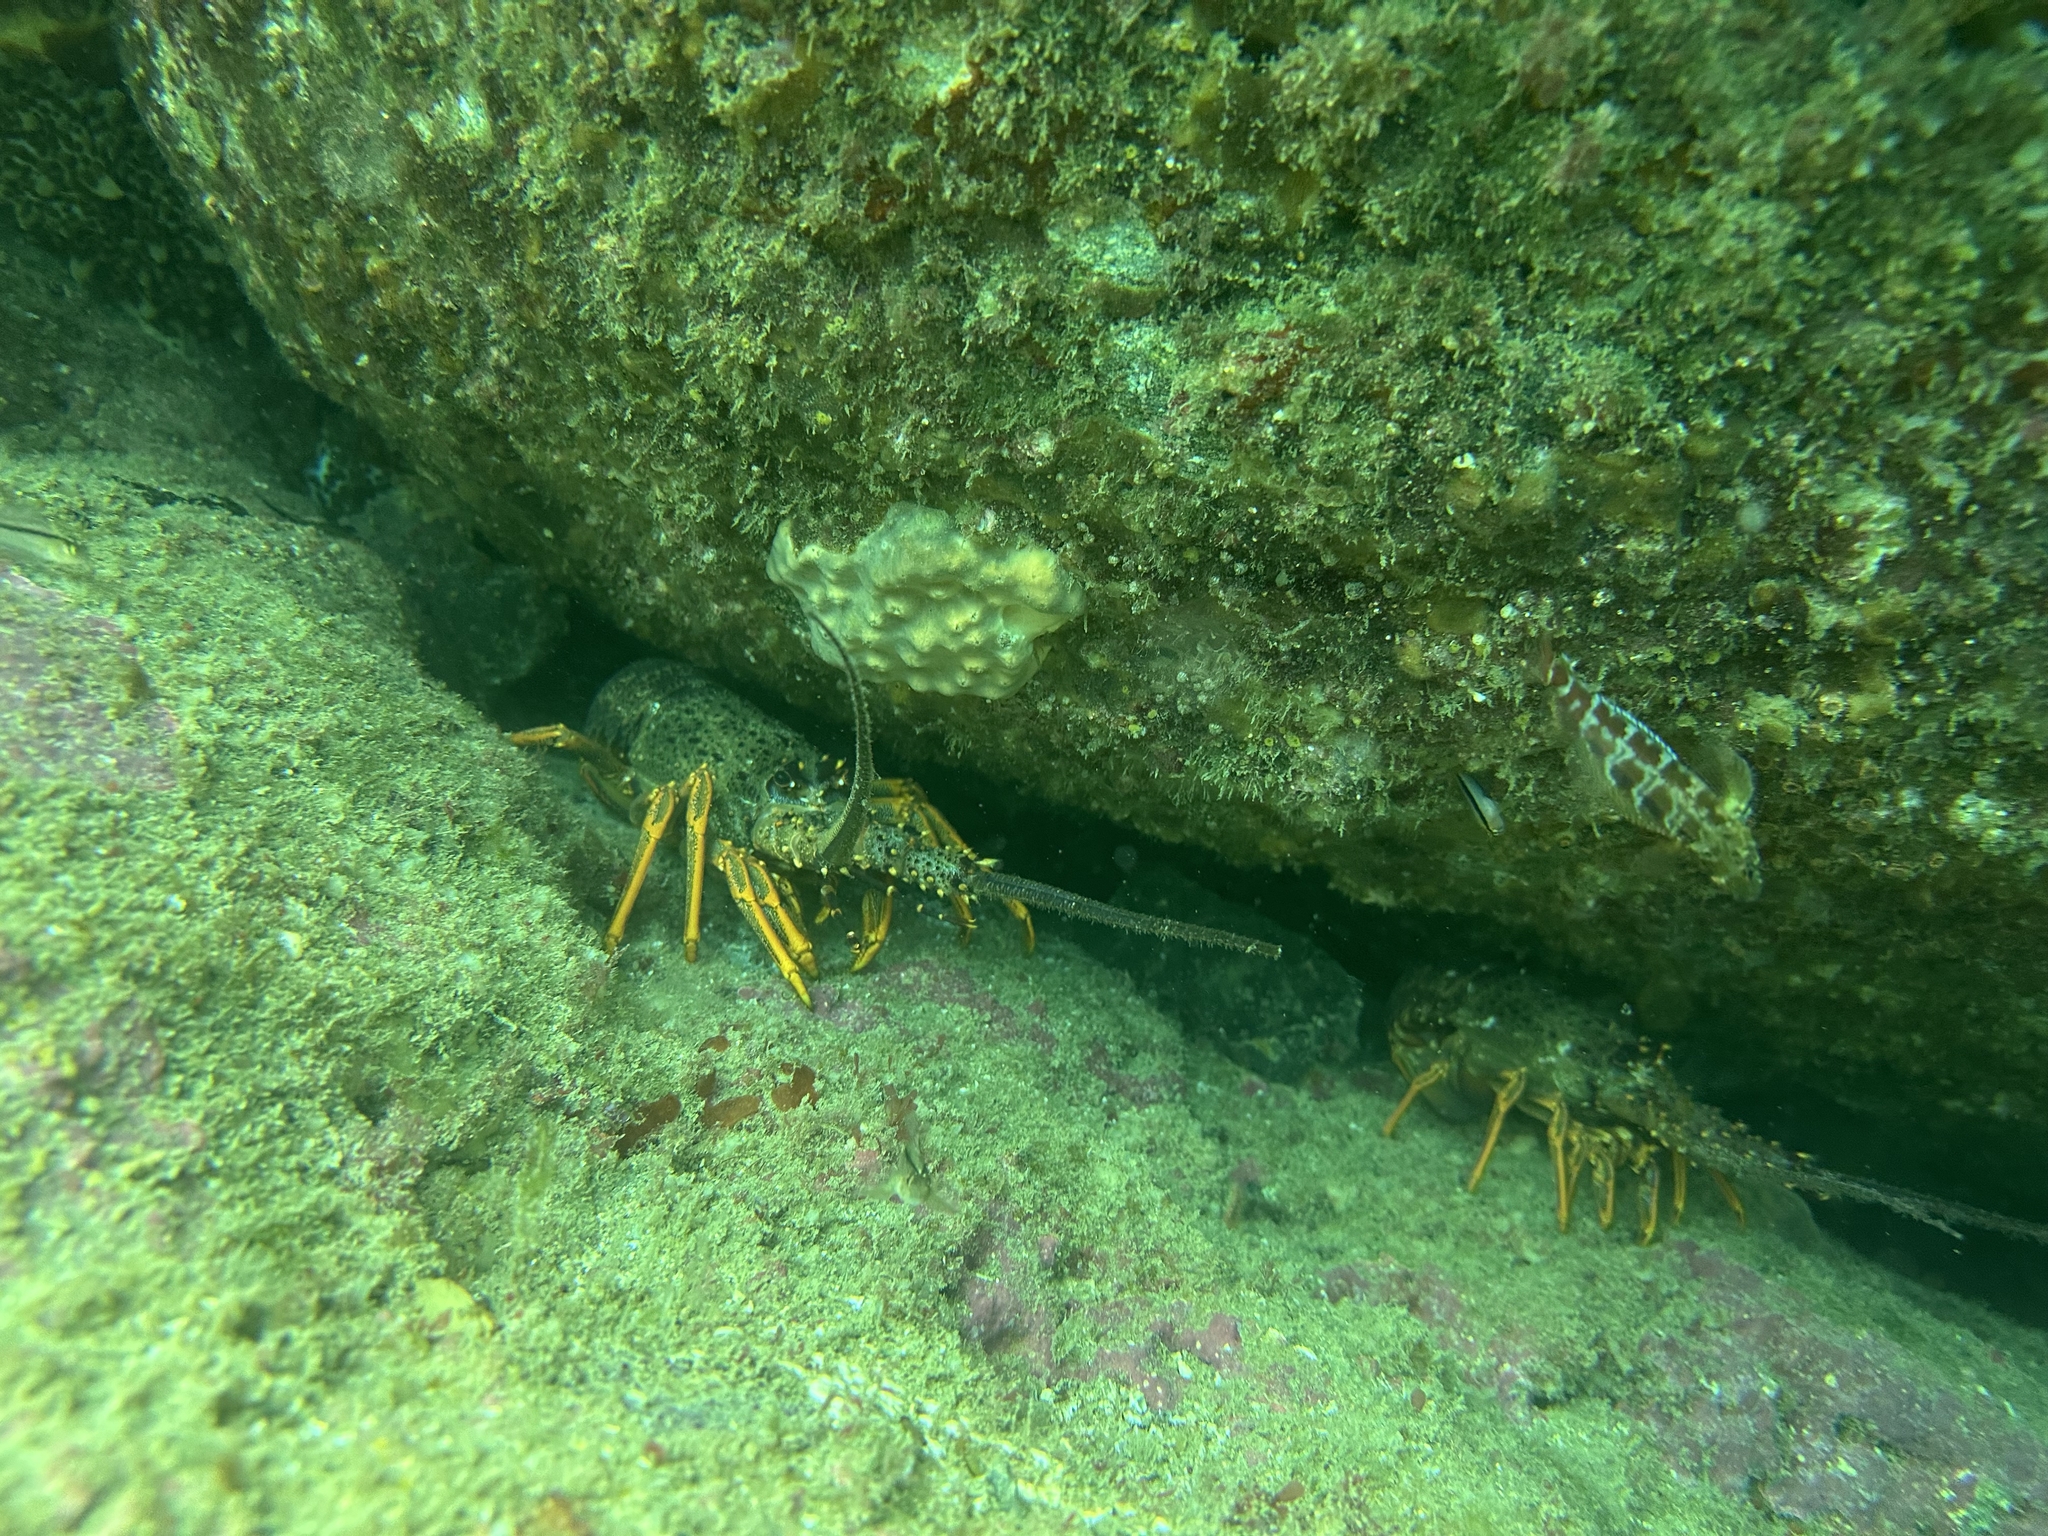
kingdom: Animalia
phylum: Arthropoda
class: Malacostraca
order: Decapoda
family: Palinuridae
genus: Jasus
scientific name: Jasus edwardsii
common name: Red rock lobster
